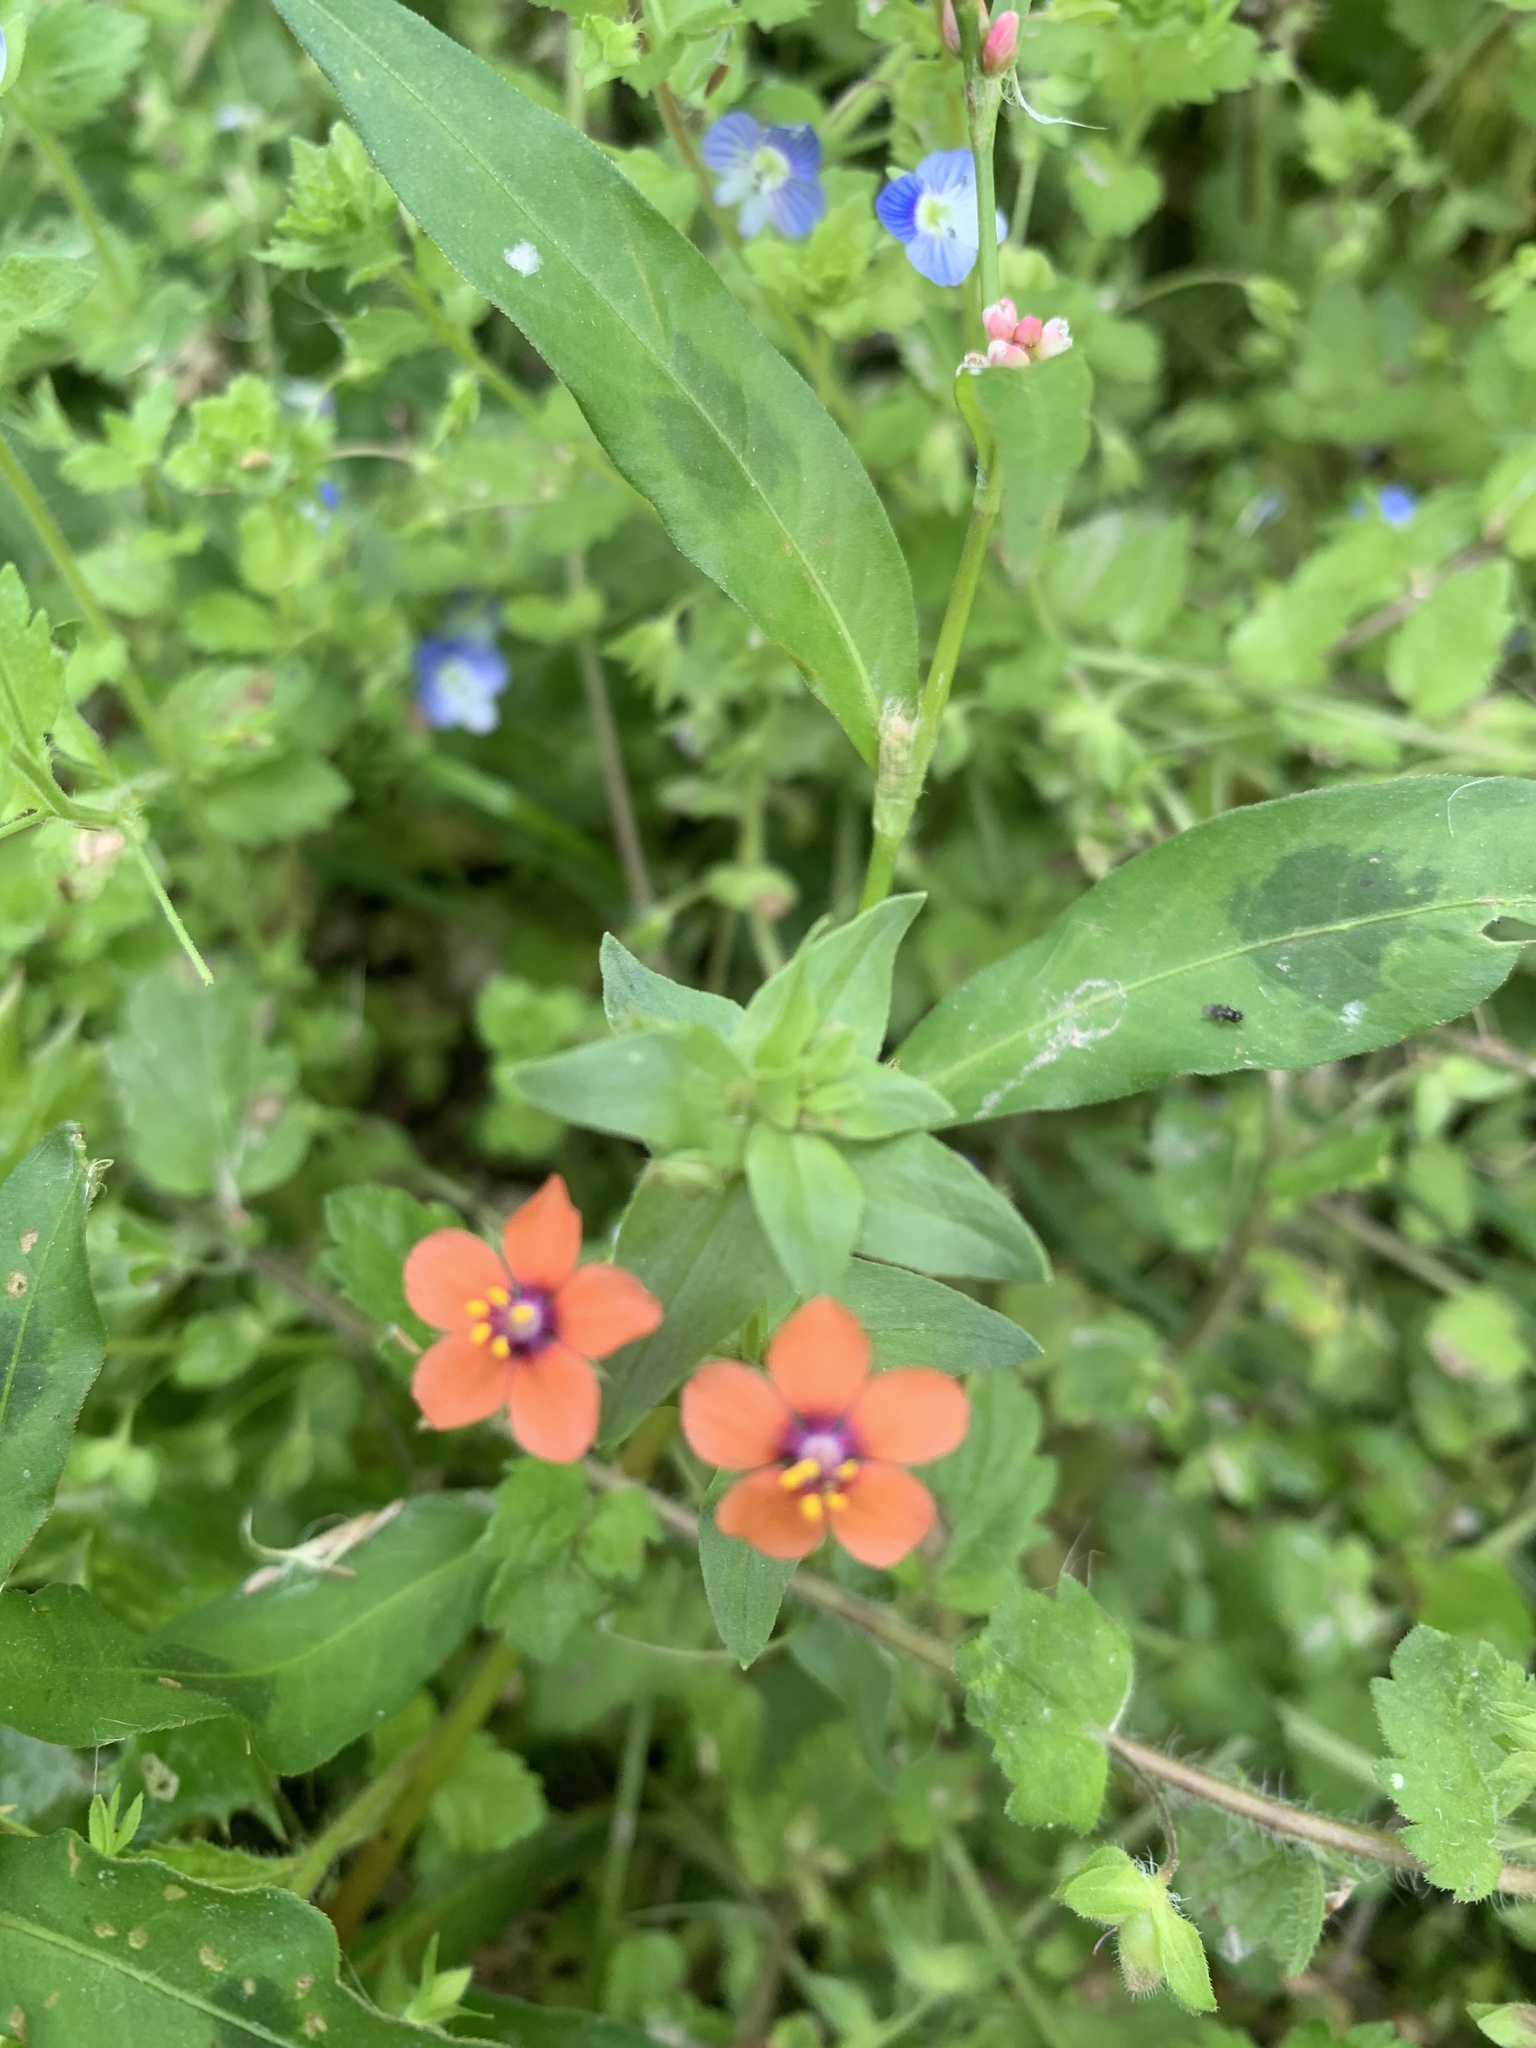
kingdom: Plantae
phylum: Tracheophyta
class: Magnoliopsida
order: Ericales
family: Primulaceae
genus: Lysimachia
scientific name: Lysimachia arvensis
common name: Scarlet pimpernel
